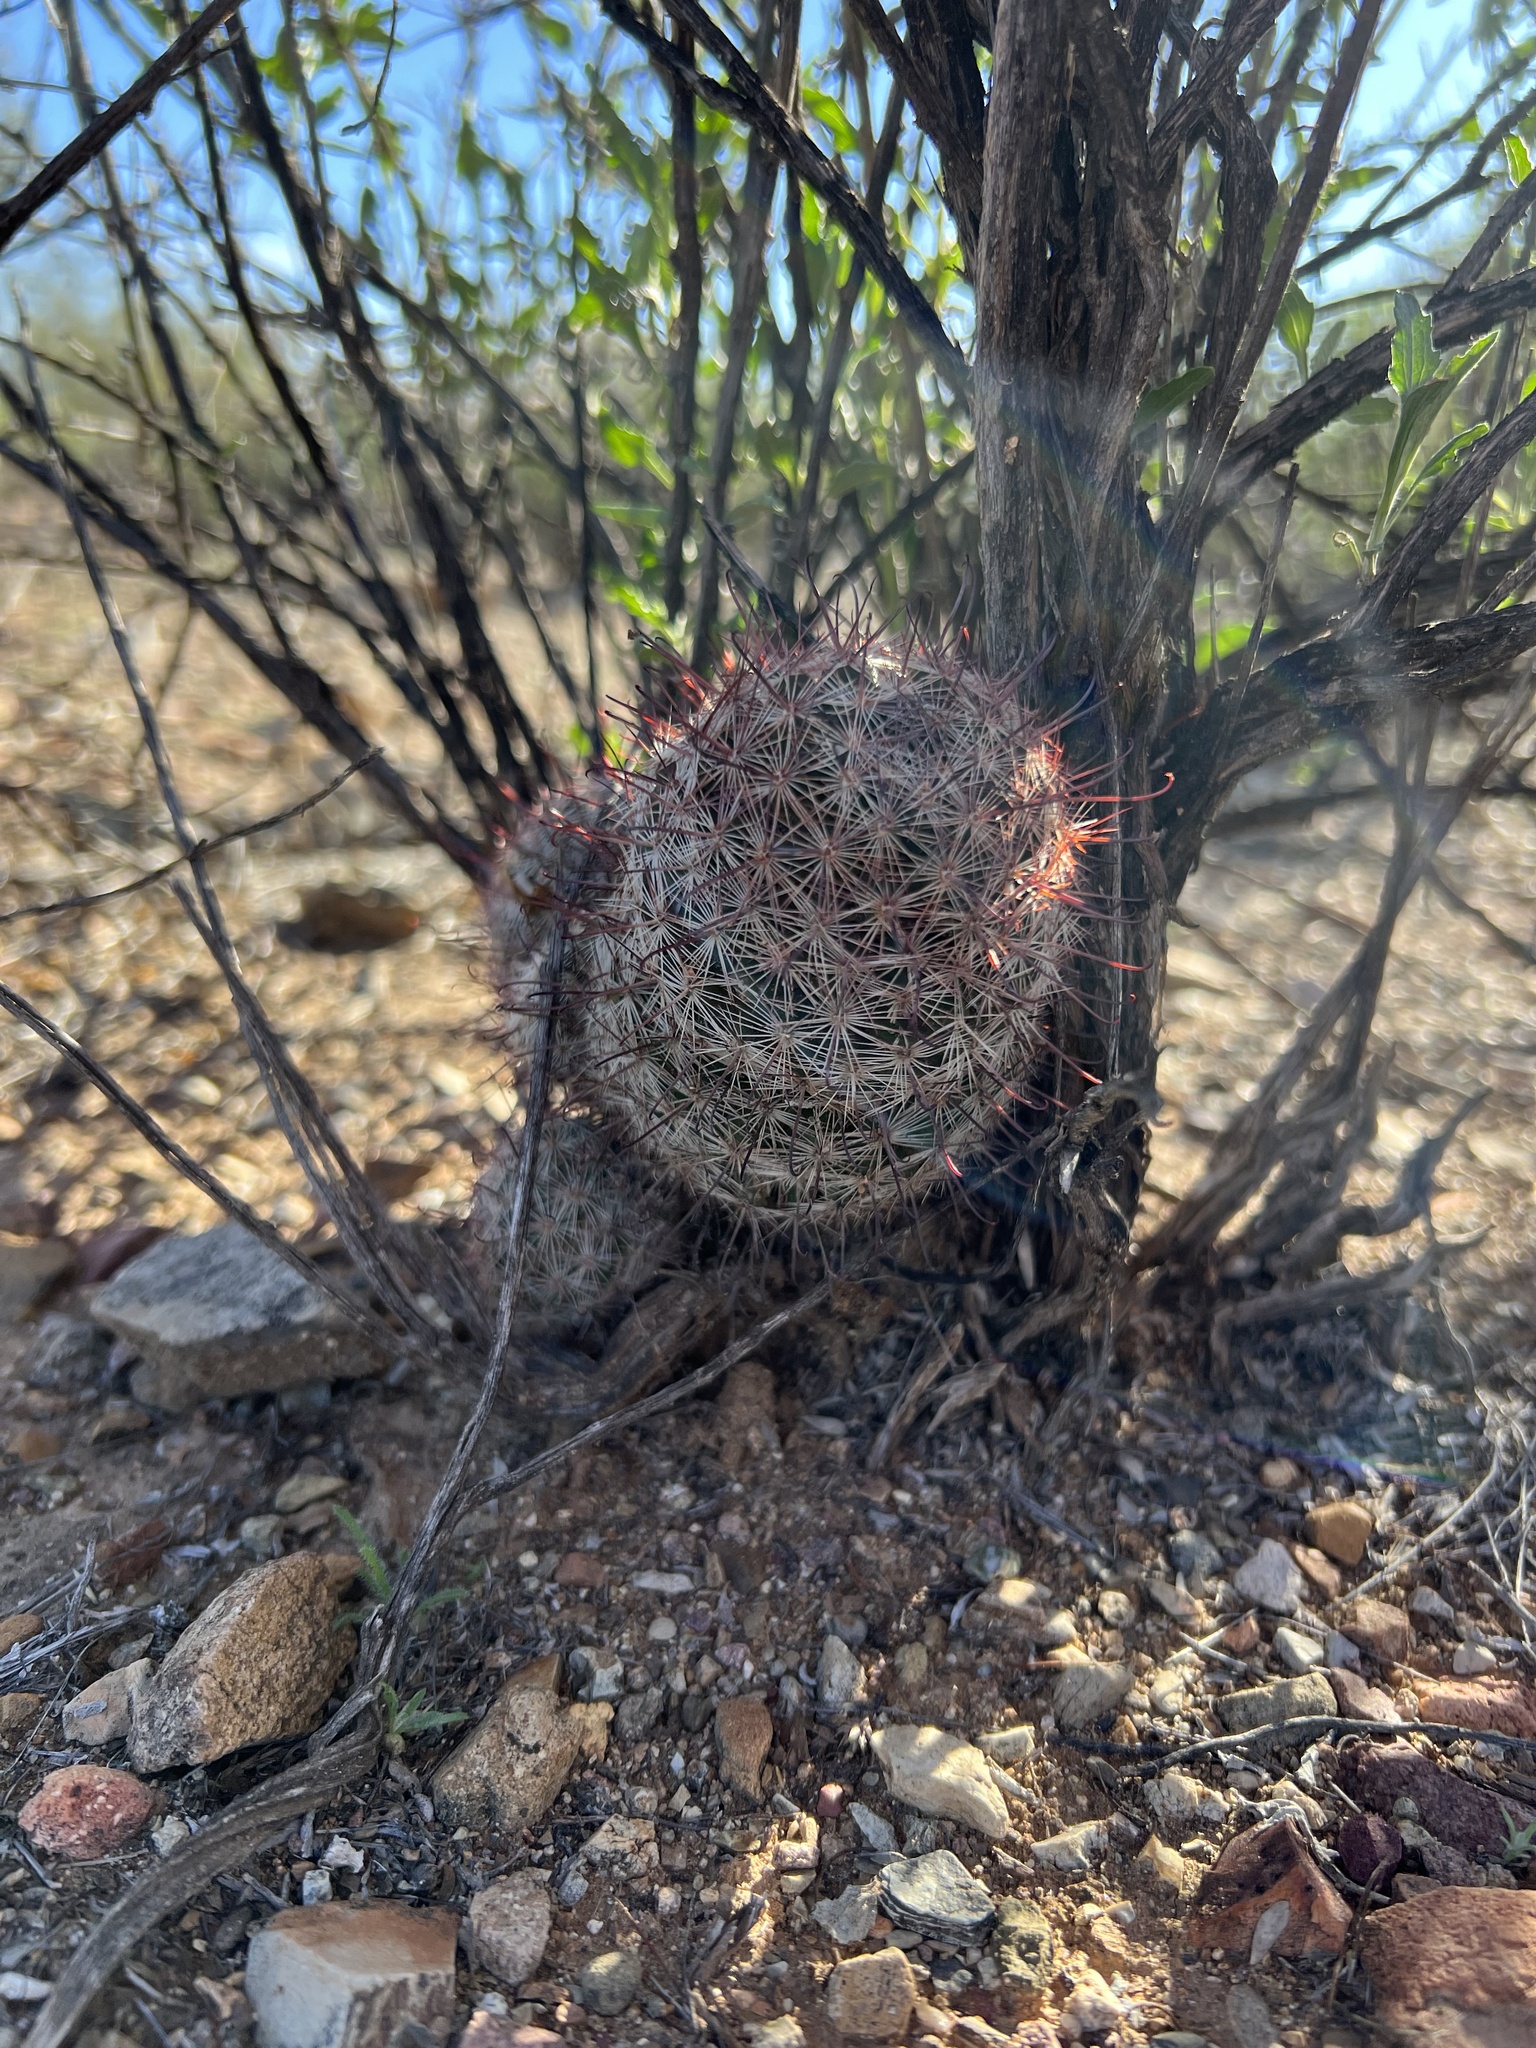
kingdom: Plantae
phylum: Tracheophyta
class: Magnoliopsida
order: Caryophyllales
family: Cactaceae
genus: Cochemiea
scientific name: Cochemiea grahamii
